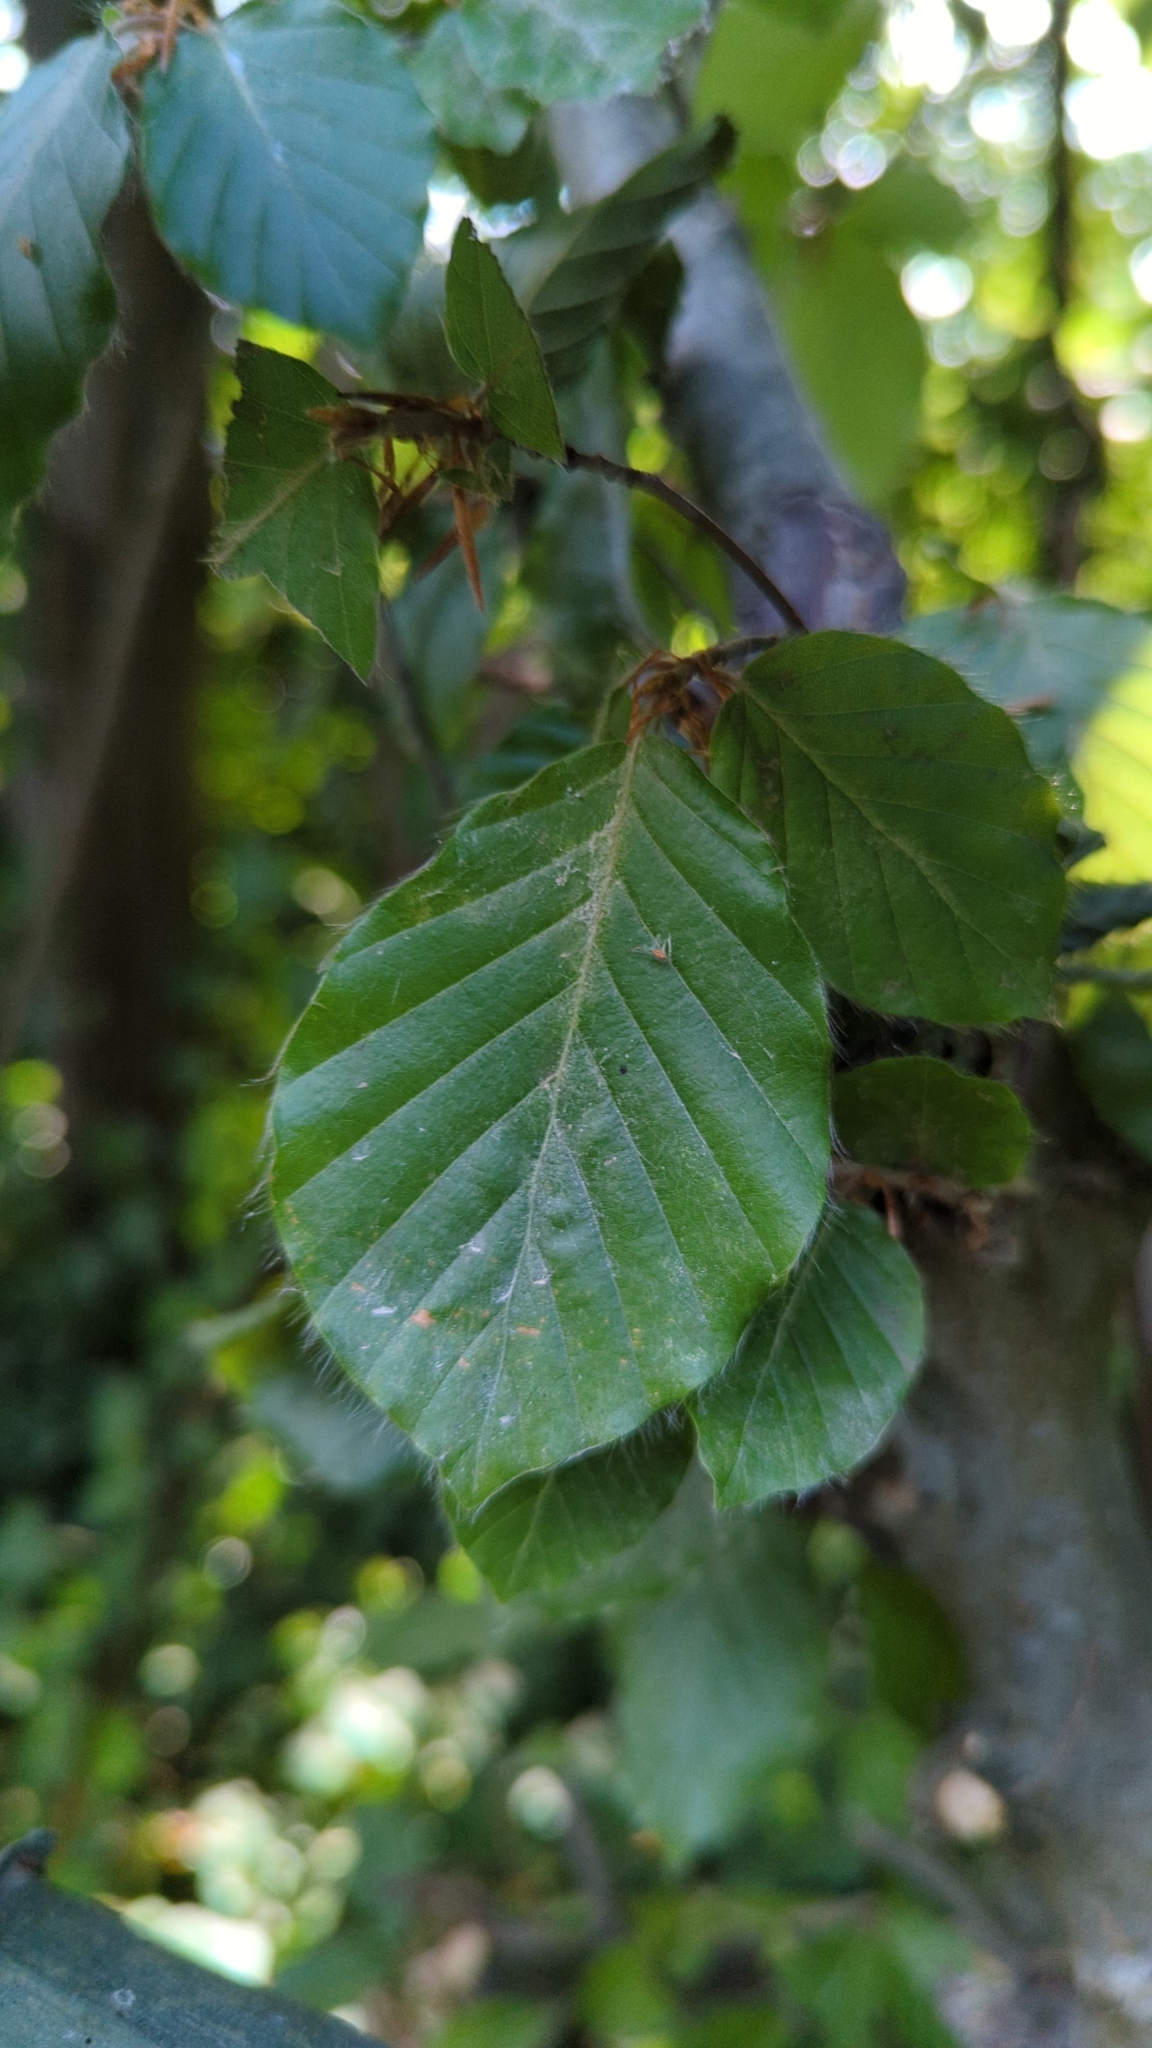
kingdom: Plantae
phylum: Tracheophyta
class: Magnoliopsida
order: Fagales
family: Fagaceae
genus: Fagus
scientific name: Fagus sylvatica
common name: Beech
